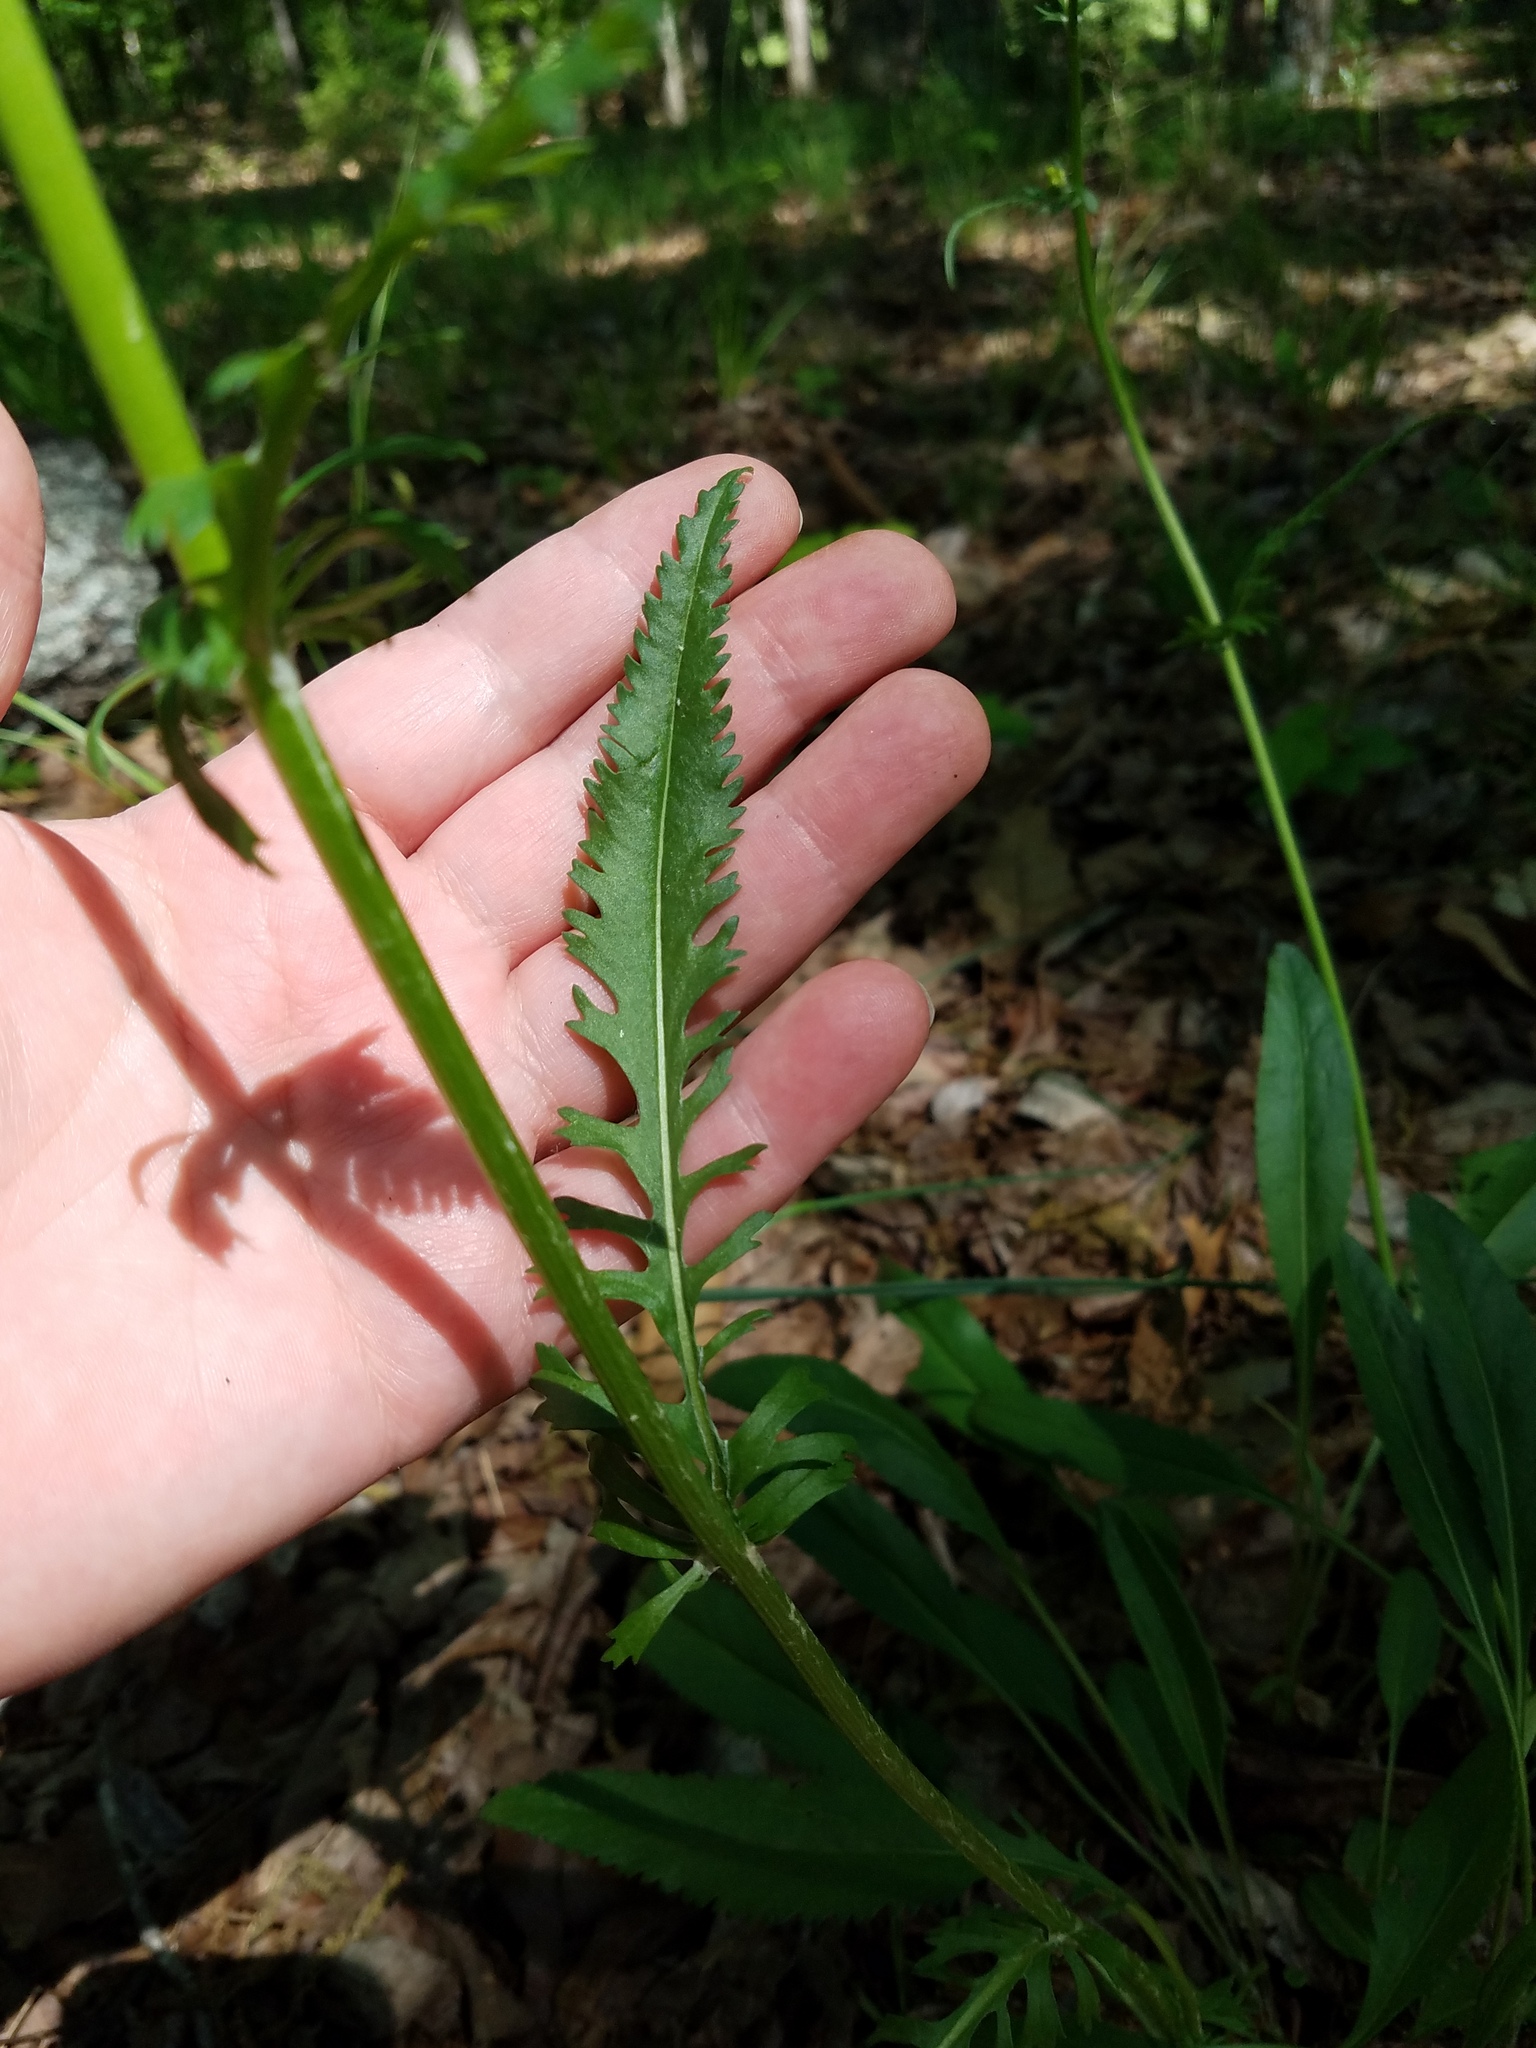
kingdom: Plantae
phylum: Tracheophyta
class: Magnoliopsida
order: Asterales
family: Asteraceae
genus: Packera
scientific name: Packera anonyma
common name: Small ragwort
